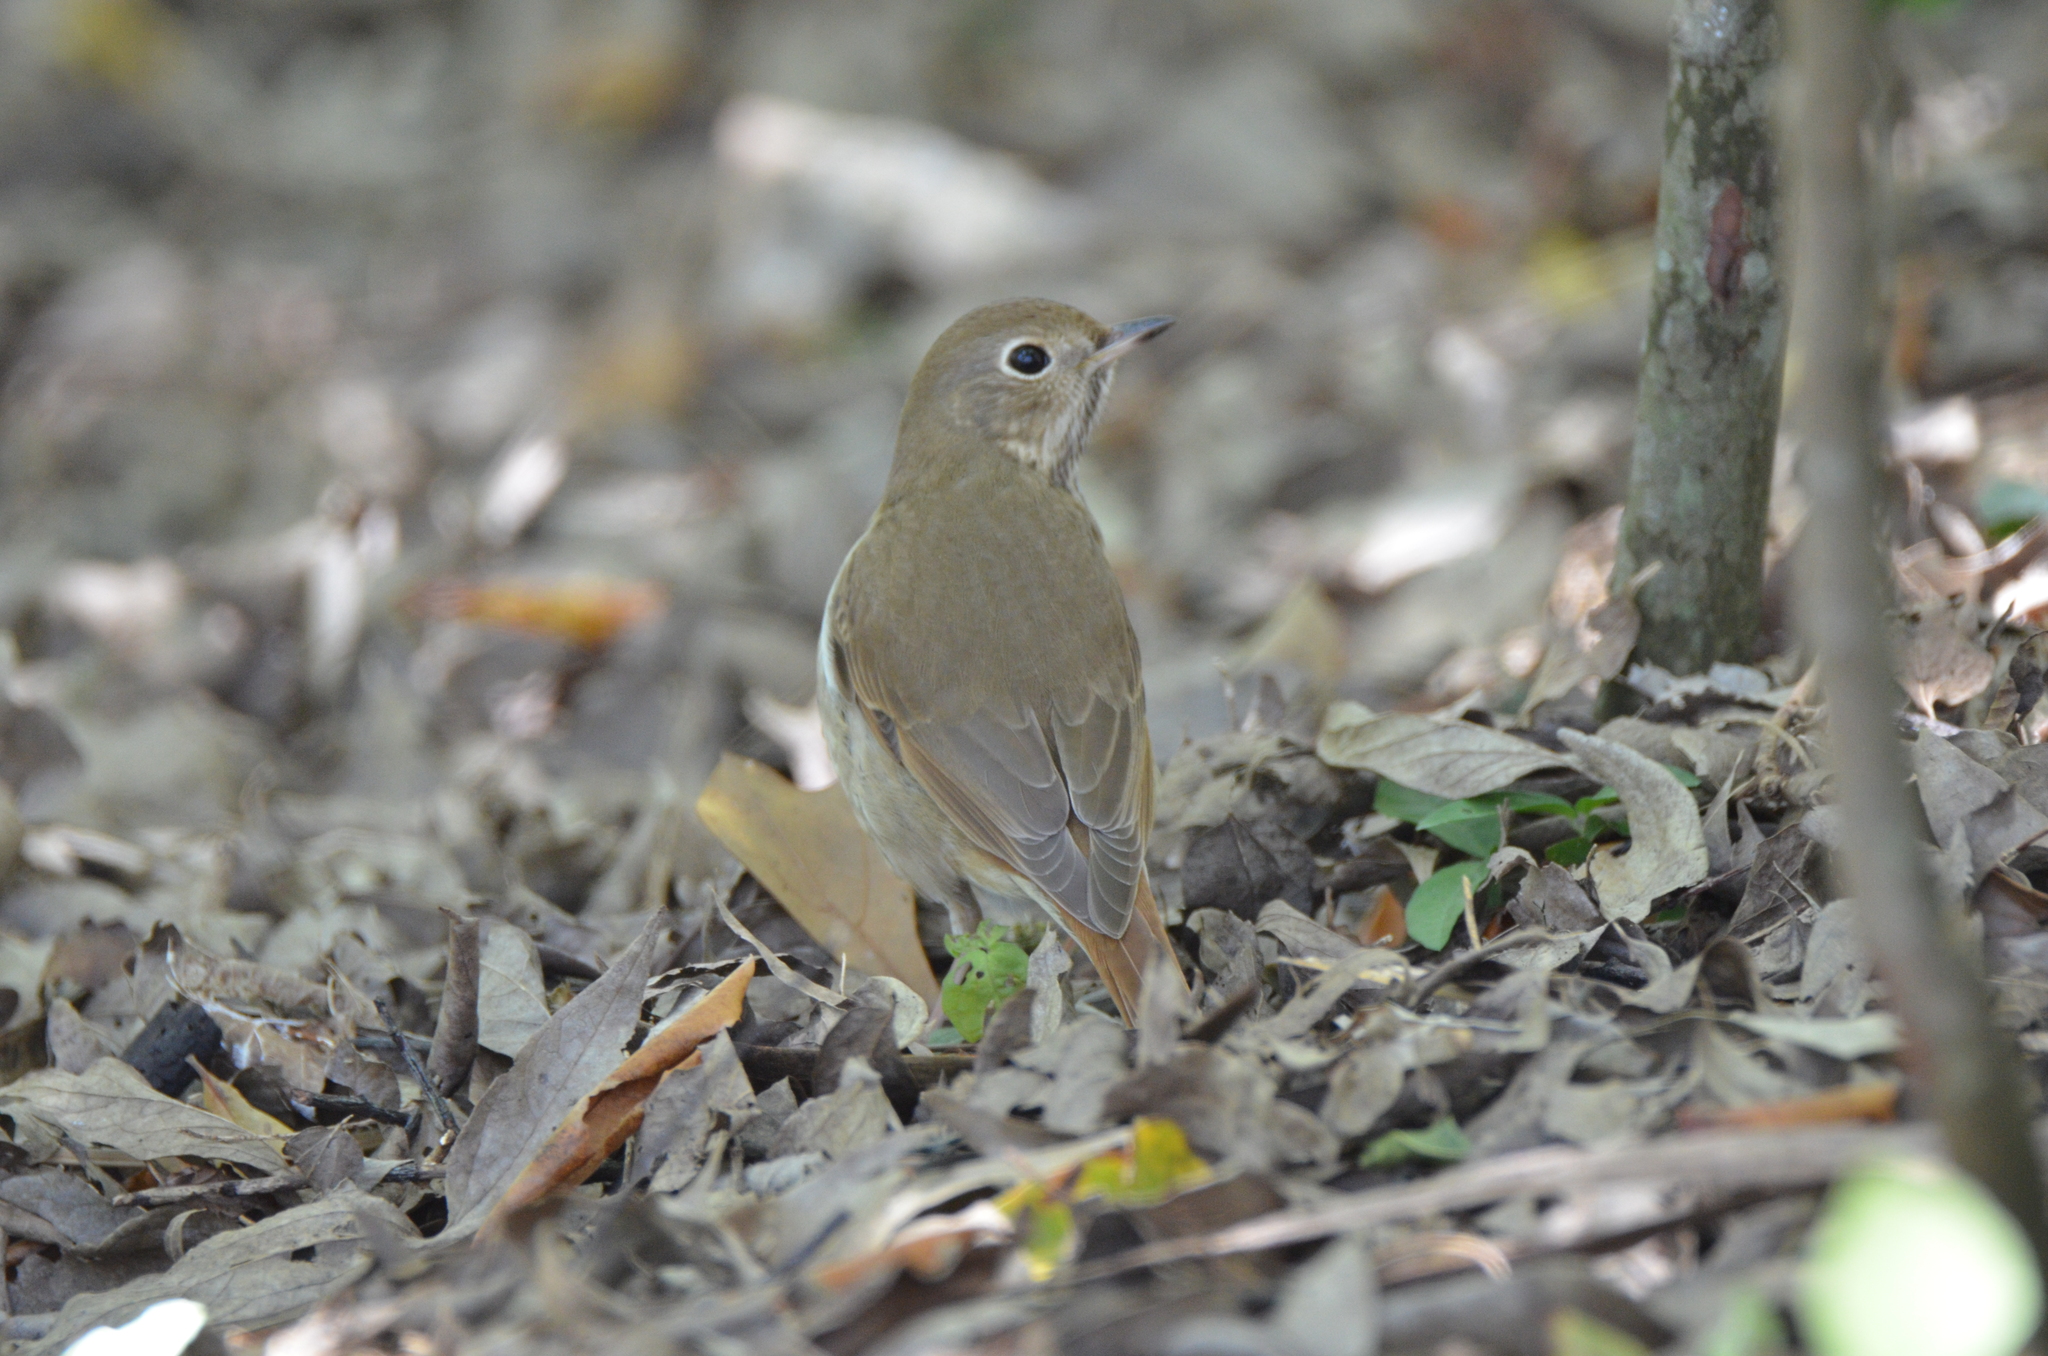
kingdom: Animalia
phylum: Chordata
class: Aves
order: Passeriformes
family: Turdidae
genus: Catharus
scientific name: Catharus guttatus
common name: Hermit thrush
